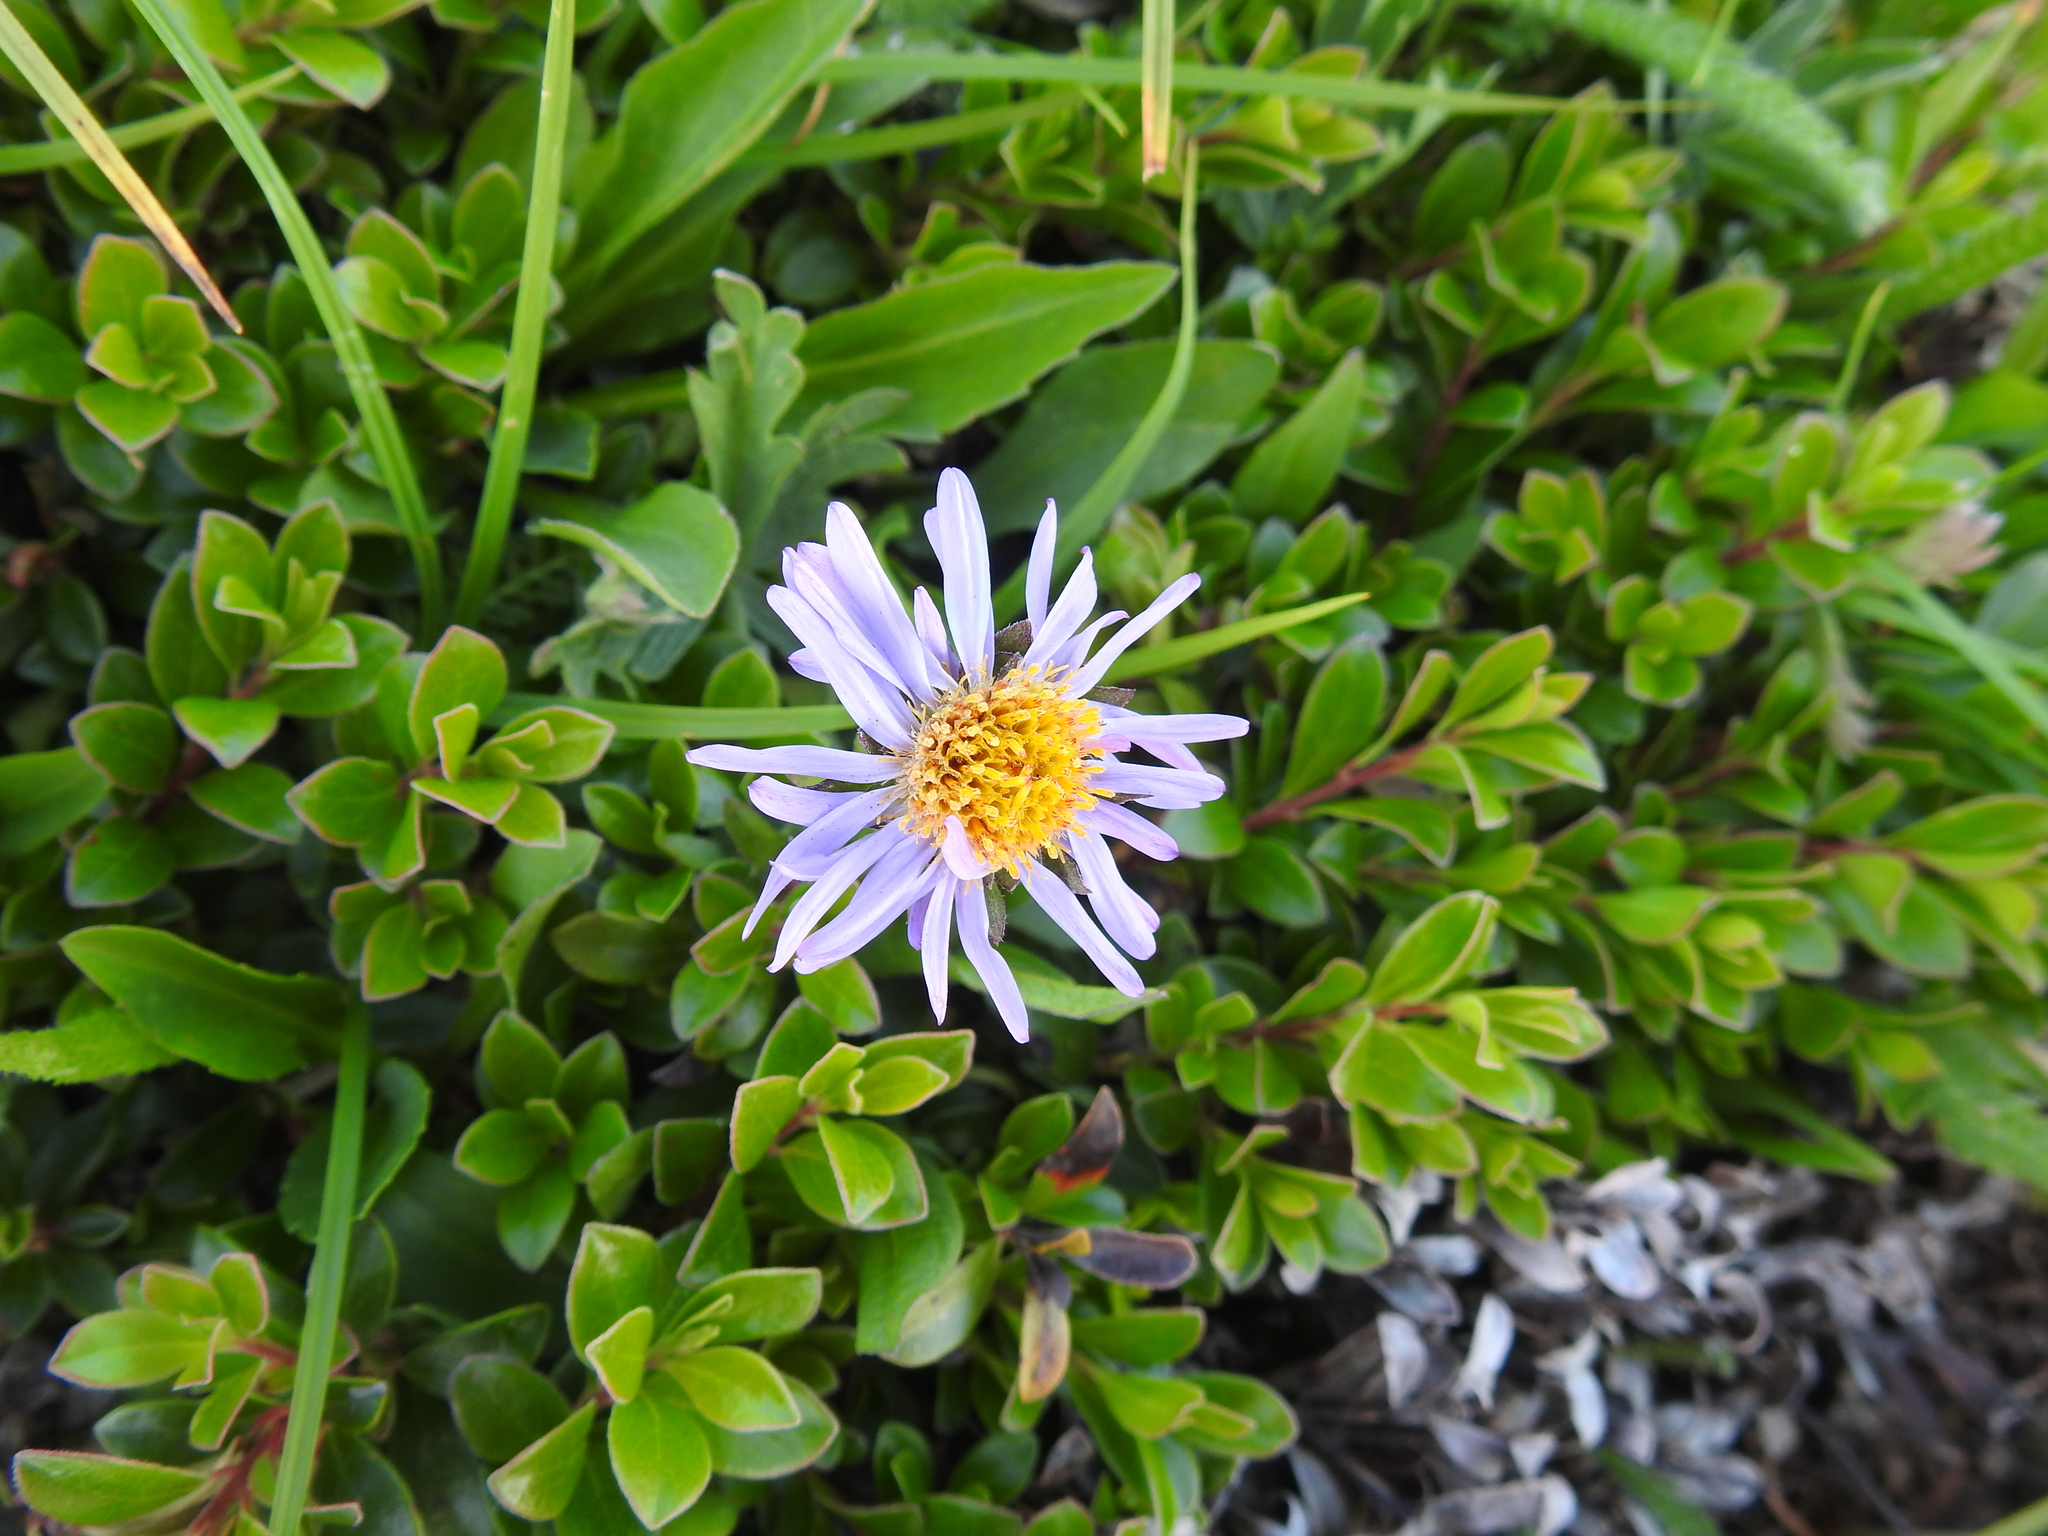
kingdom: Plantae
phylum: Tracheophyta
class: Magnoliopsida
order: Asterales
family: Asteraceae
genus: Oreostemma
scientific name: Oreostemma alpigenum
